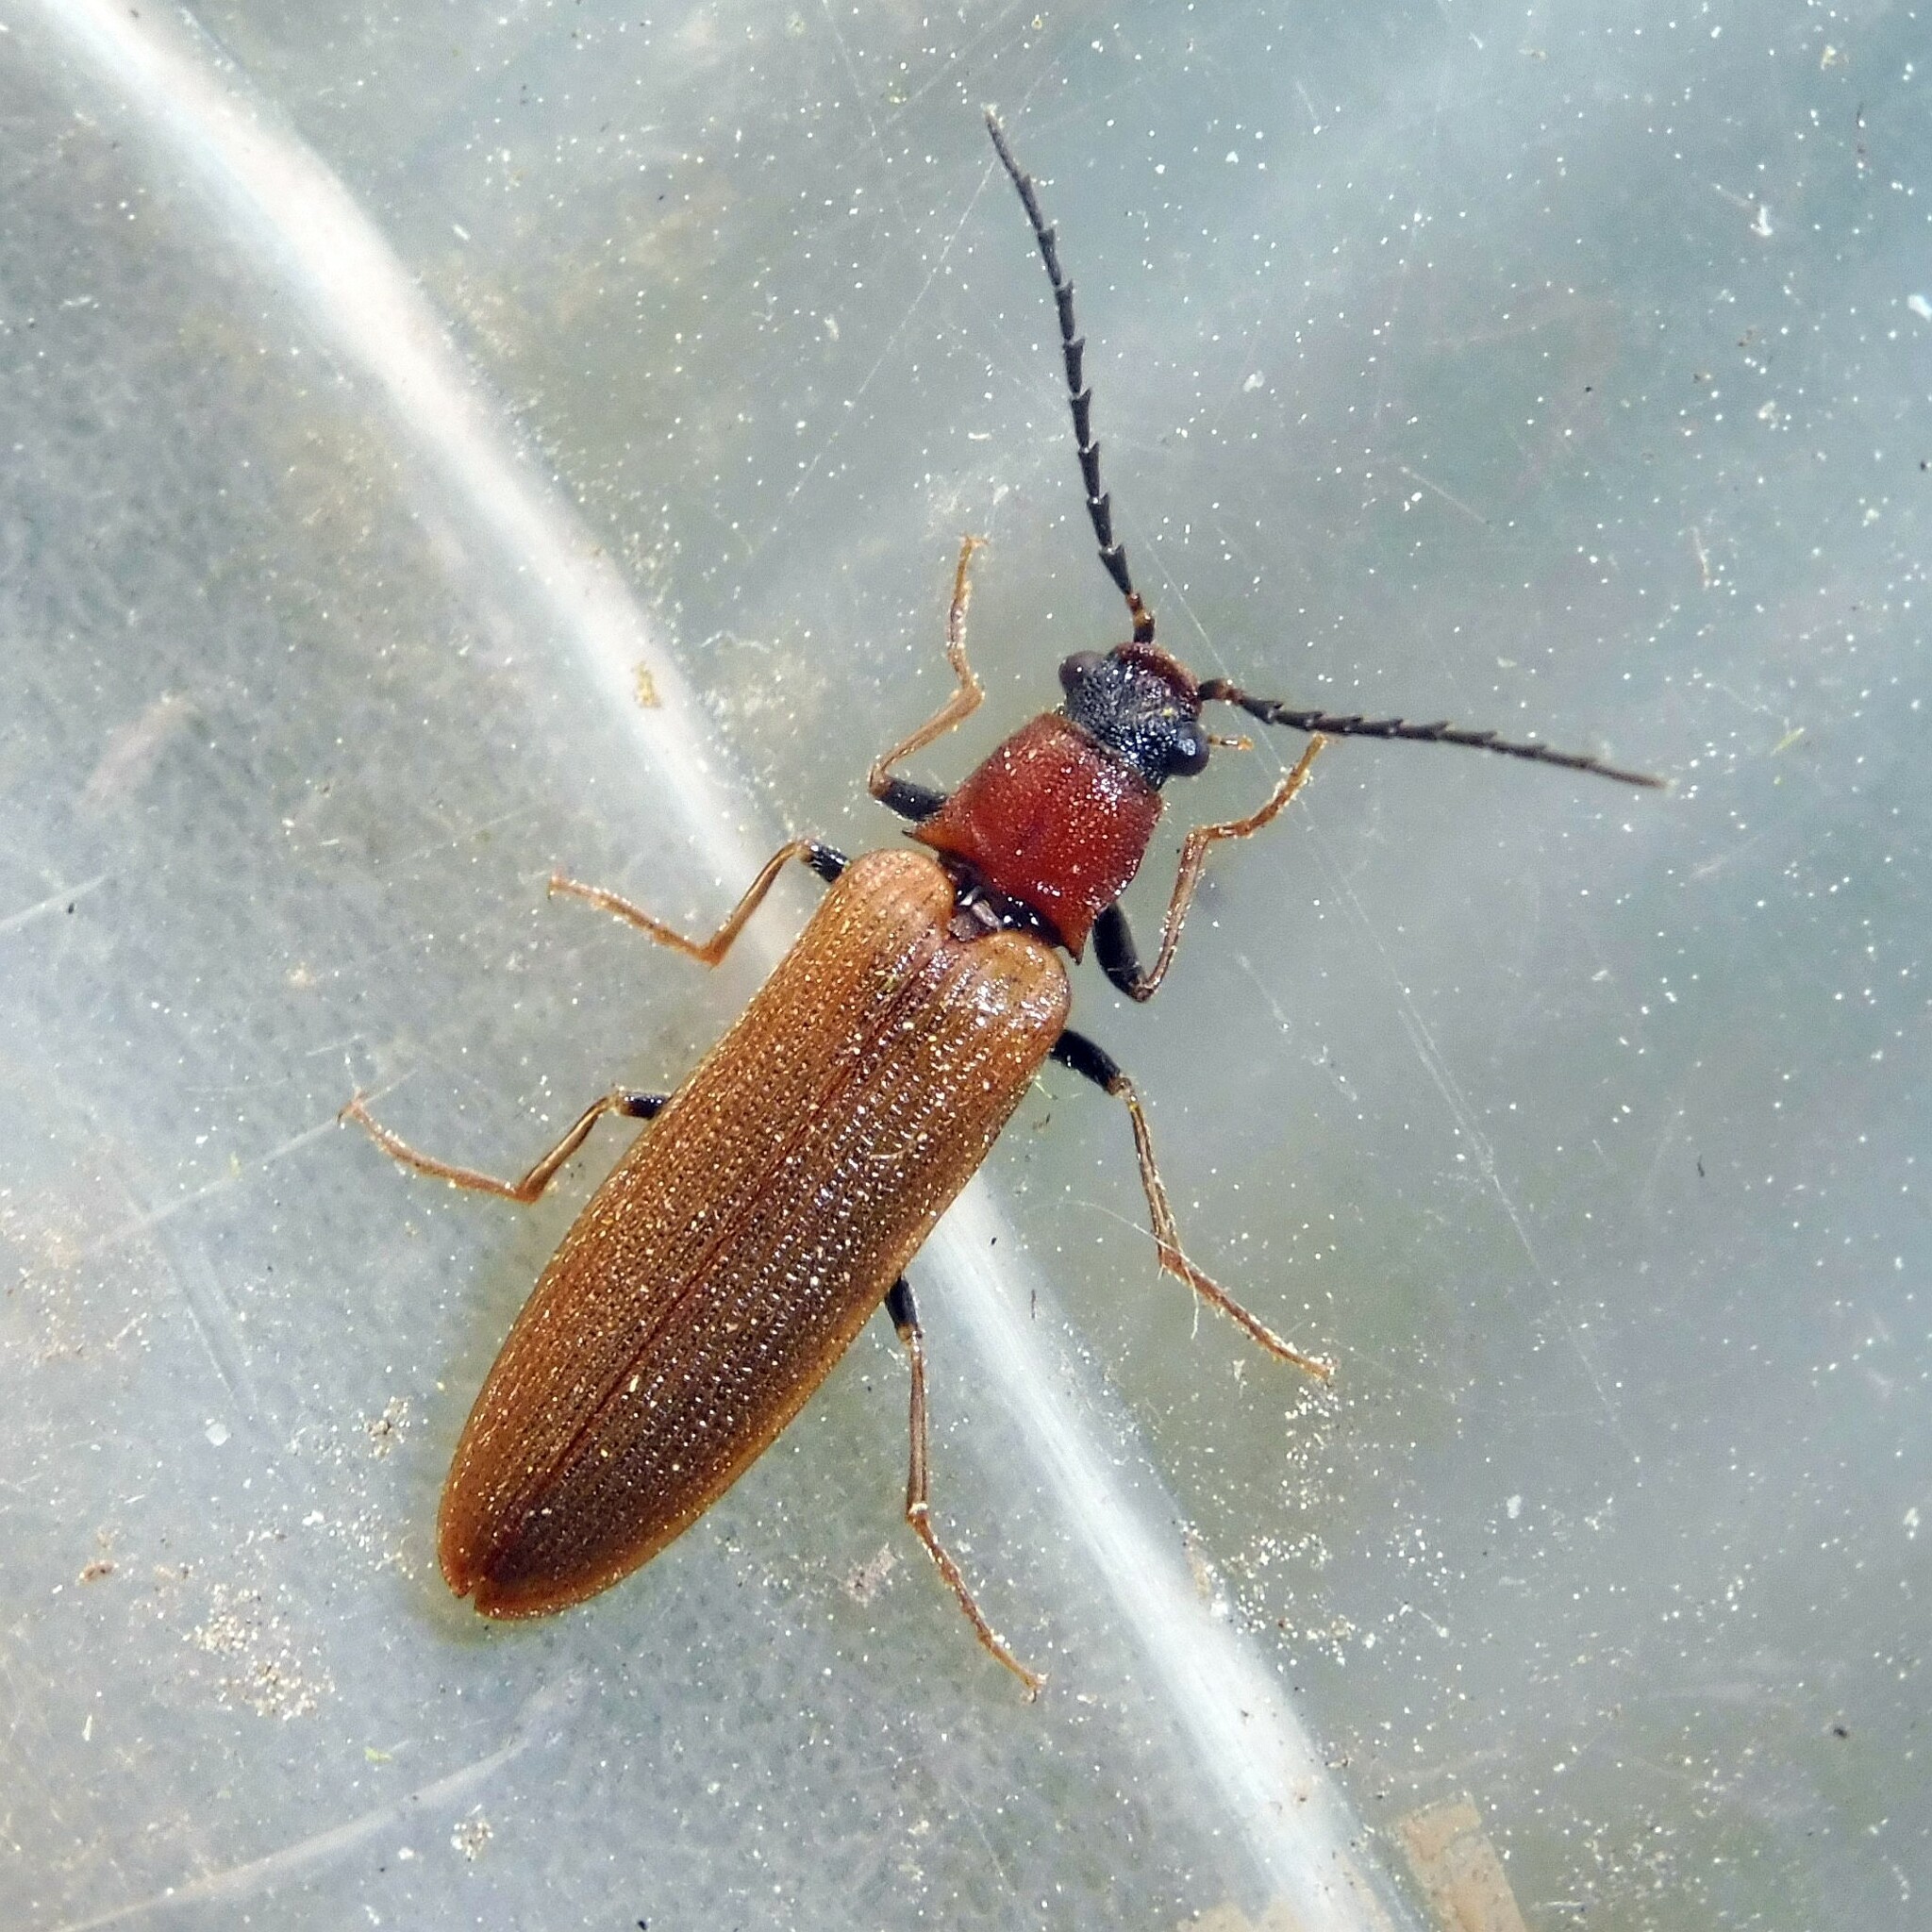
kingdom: Animalia
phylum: Arthropoda
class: Insecta
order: Coleoptera
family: Elateridae
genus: Denticollis
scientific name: Denticollis linearis
